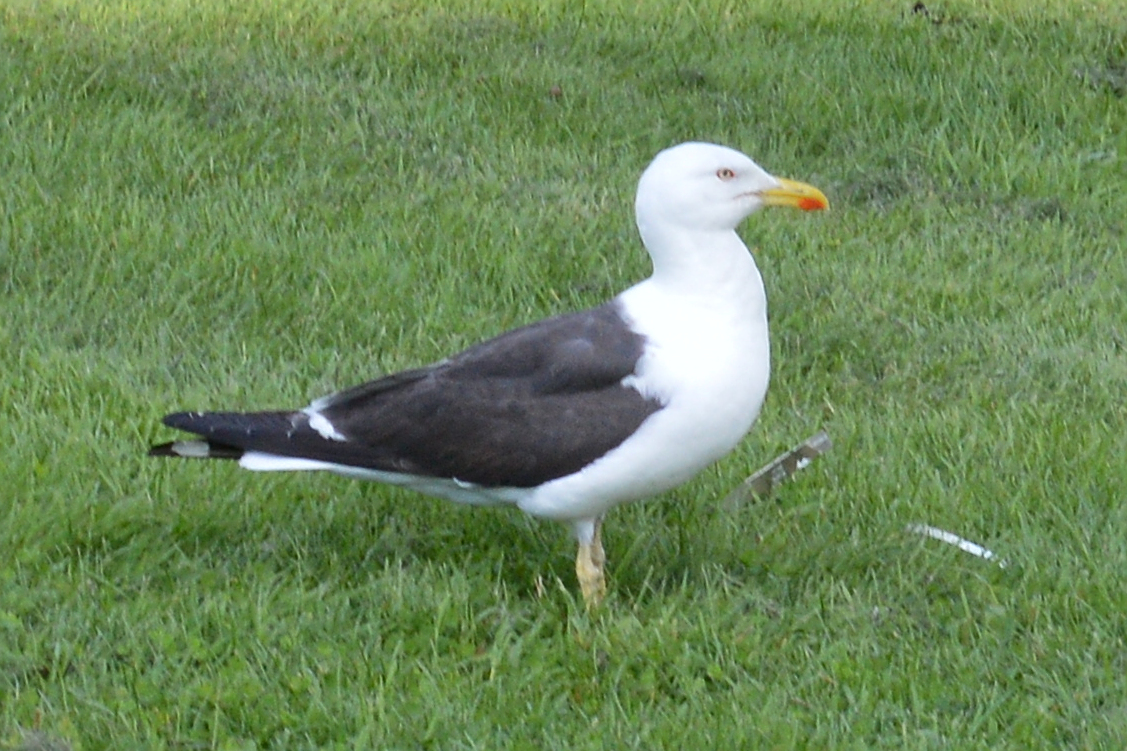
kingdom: Animalia
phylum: Chordata
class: Aves
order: Charadriiformes
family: Laridae
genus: Larus
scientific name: Larus fuscus
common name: Lesser black-backed gull
